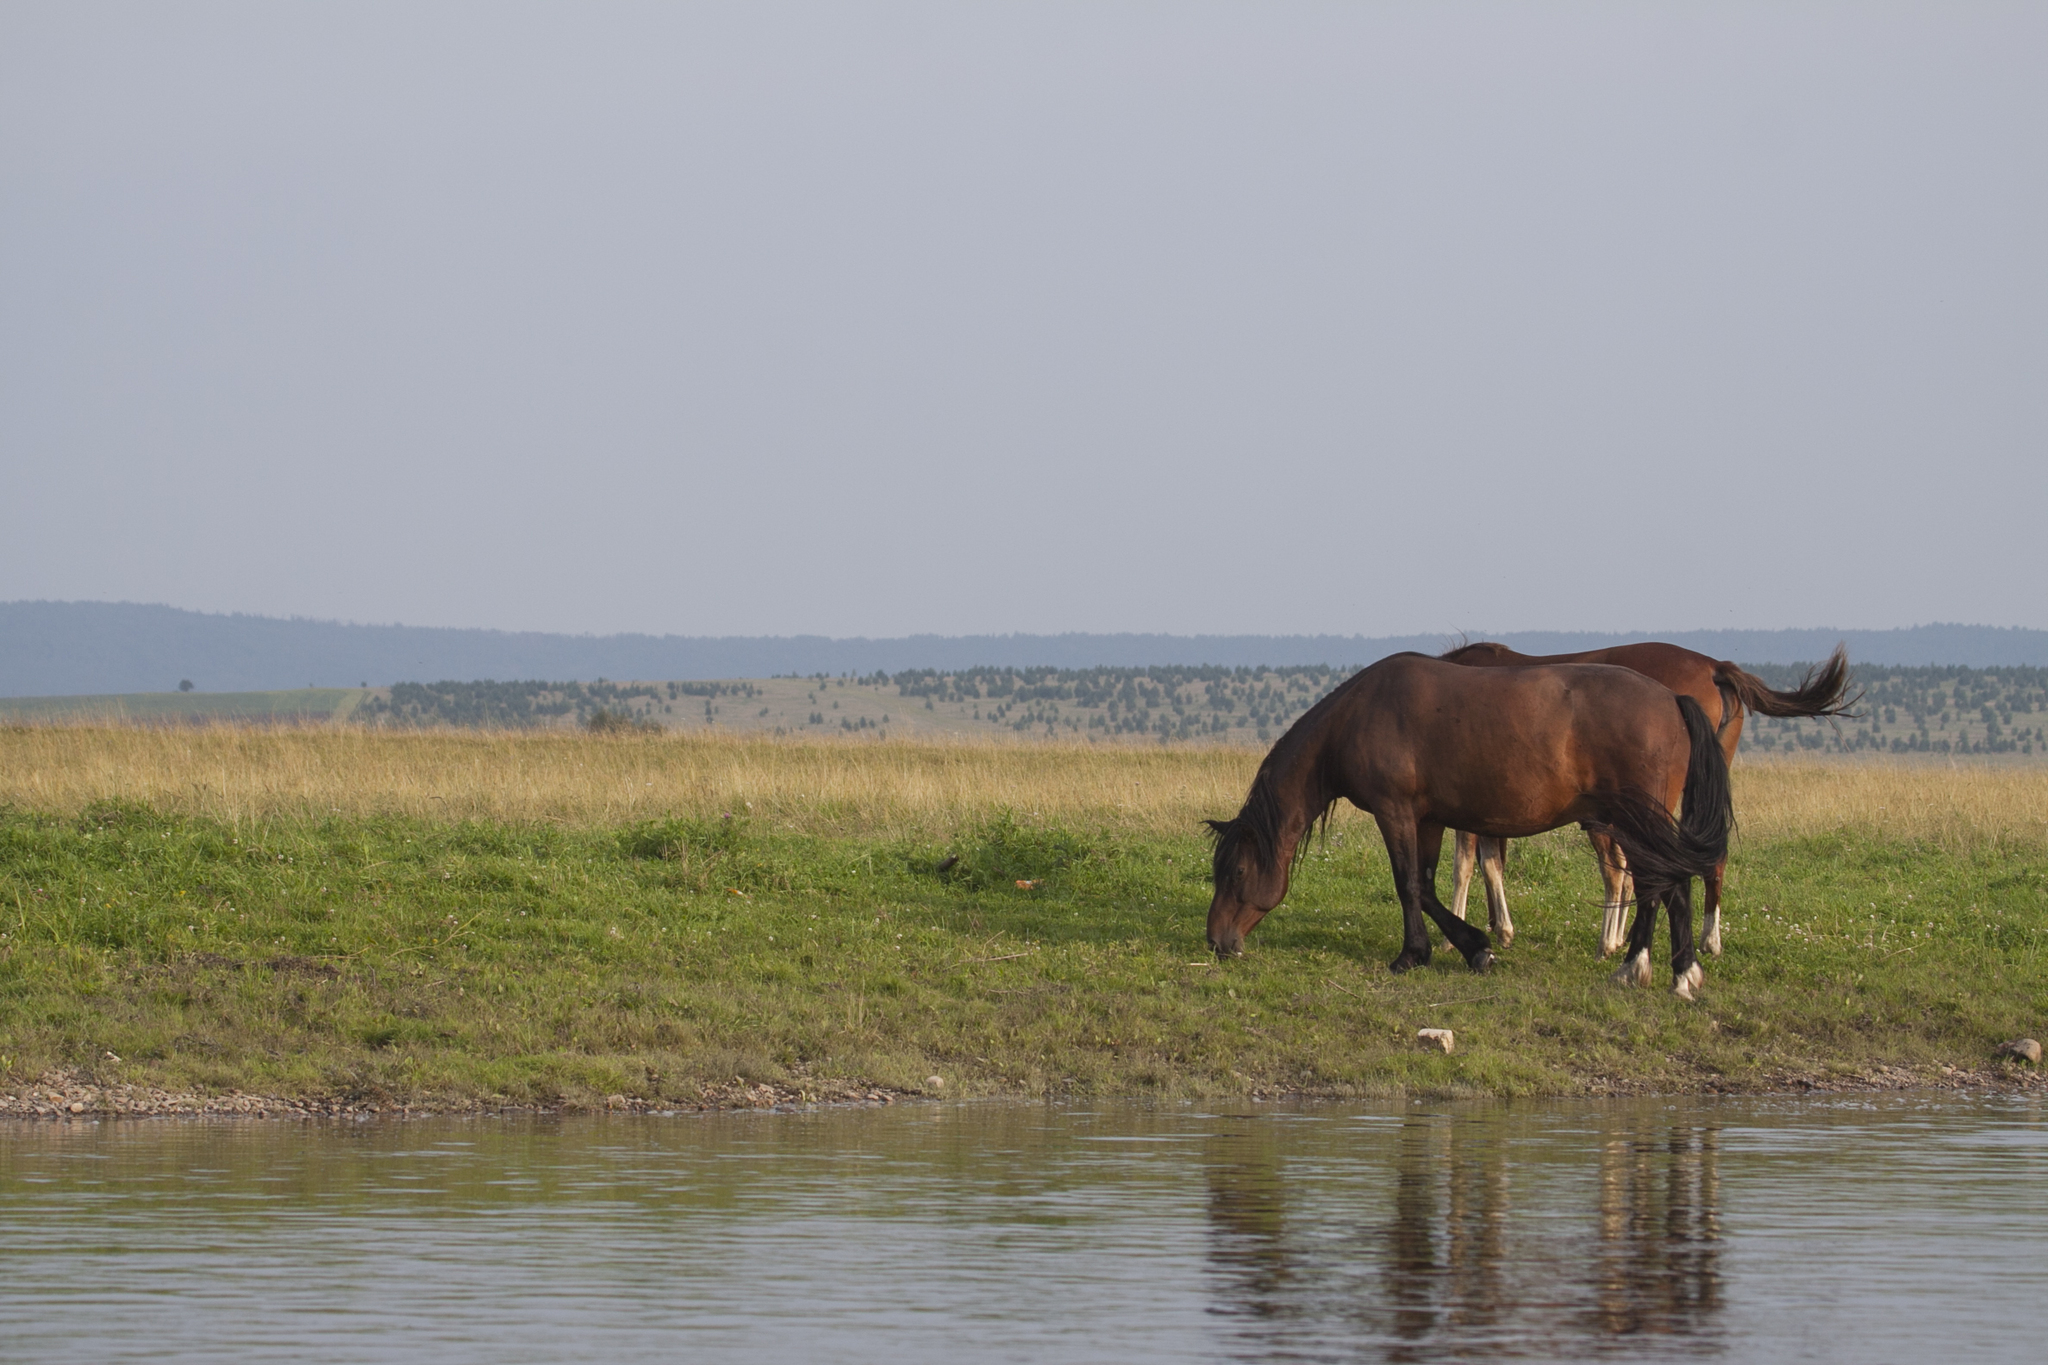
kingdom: Animalia
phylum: Chordata
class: Mammalia
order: Perissodactyla
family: Equidae
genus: Equus
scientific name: Equus caballus
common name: Horse
